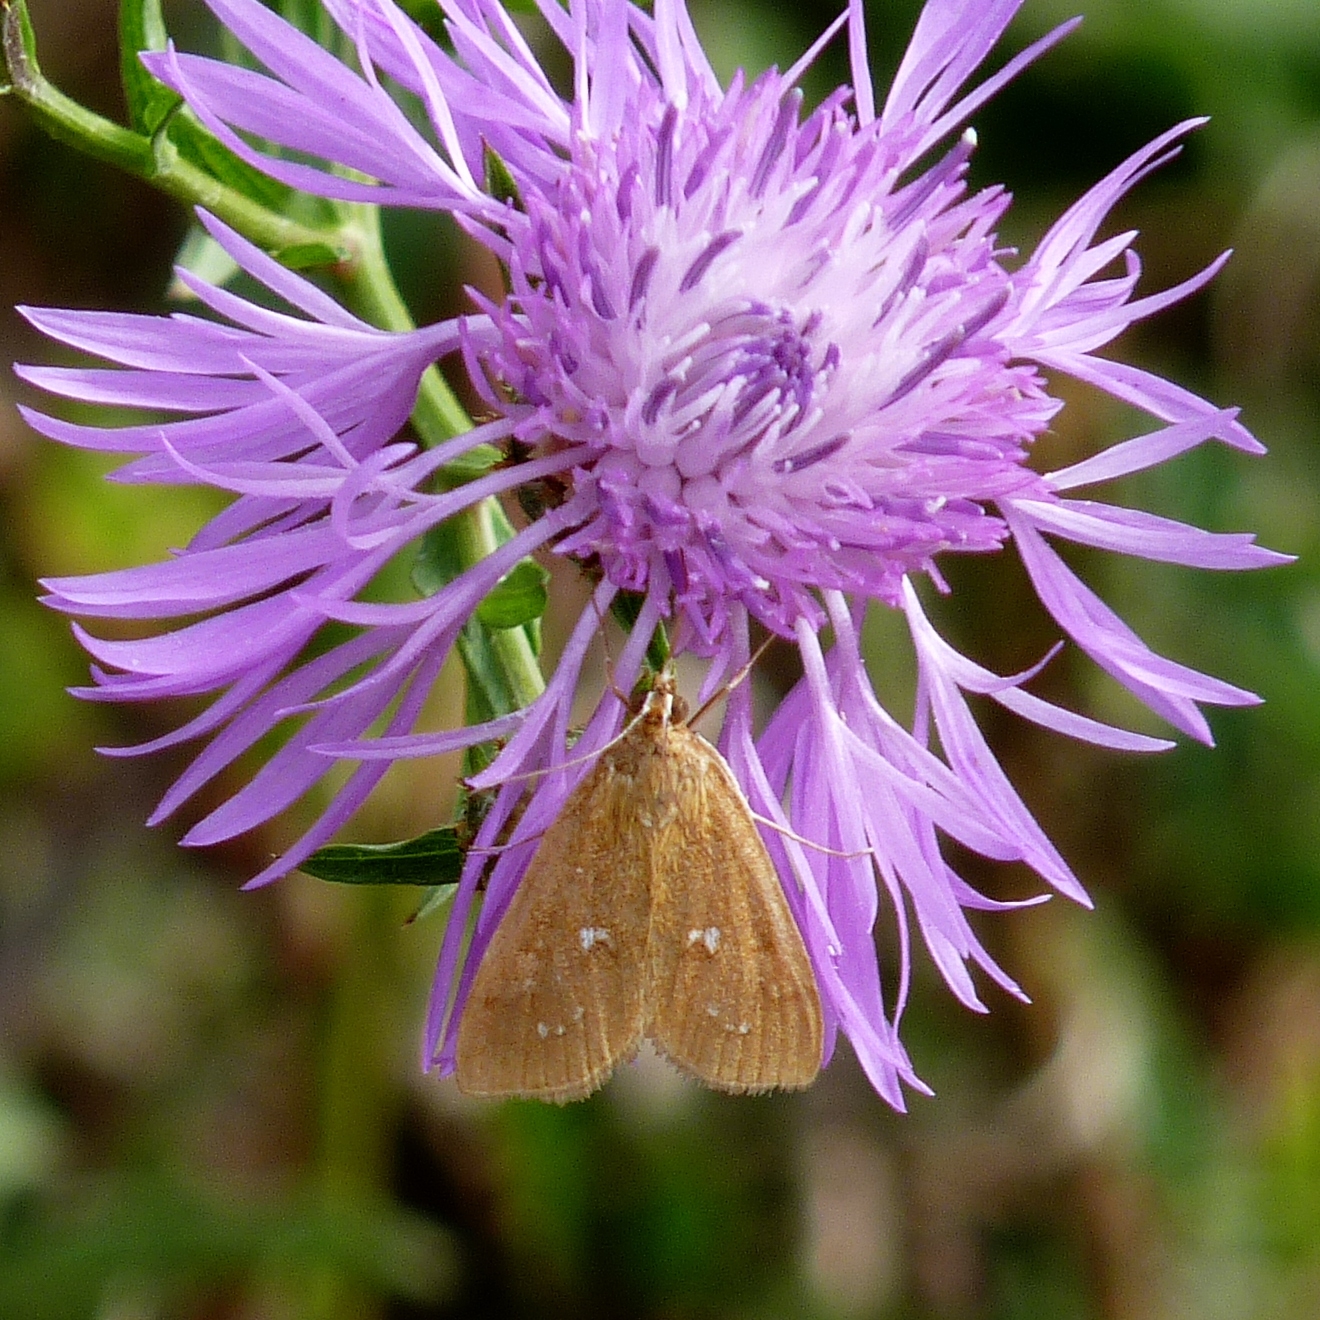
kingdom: Animalia
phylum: Arthropoda
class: Insecta
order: Lepidoptera
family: Crambidae
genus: Diastictis
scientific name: Diastictis
